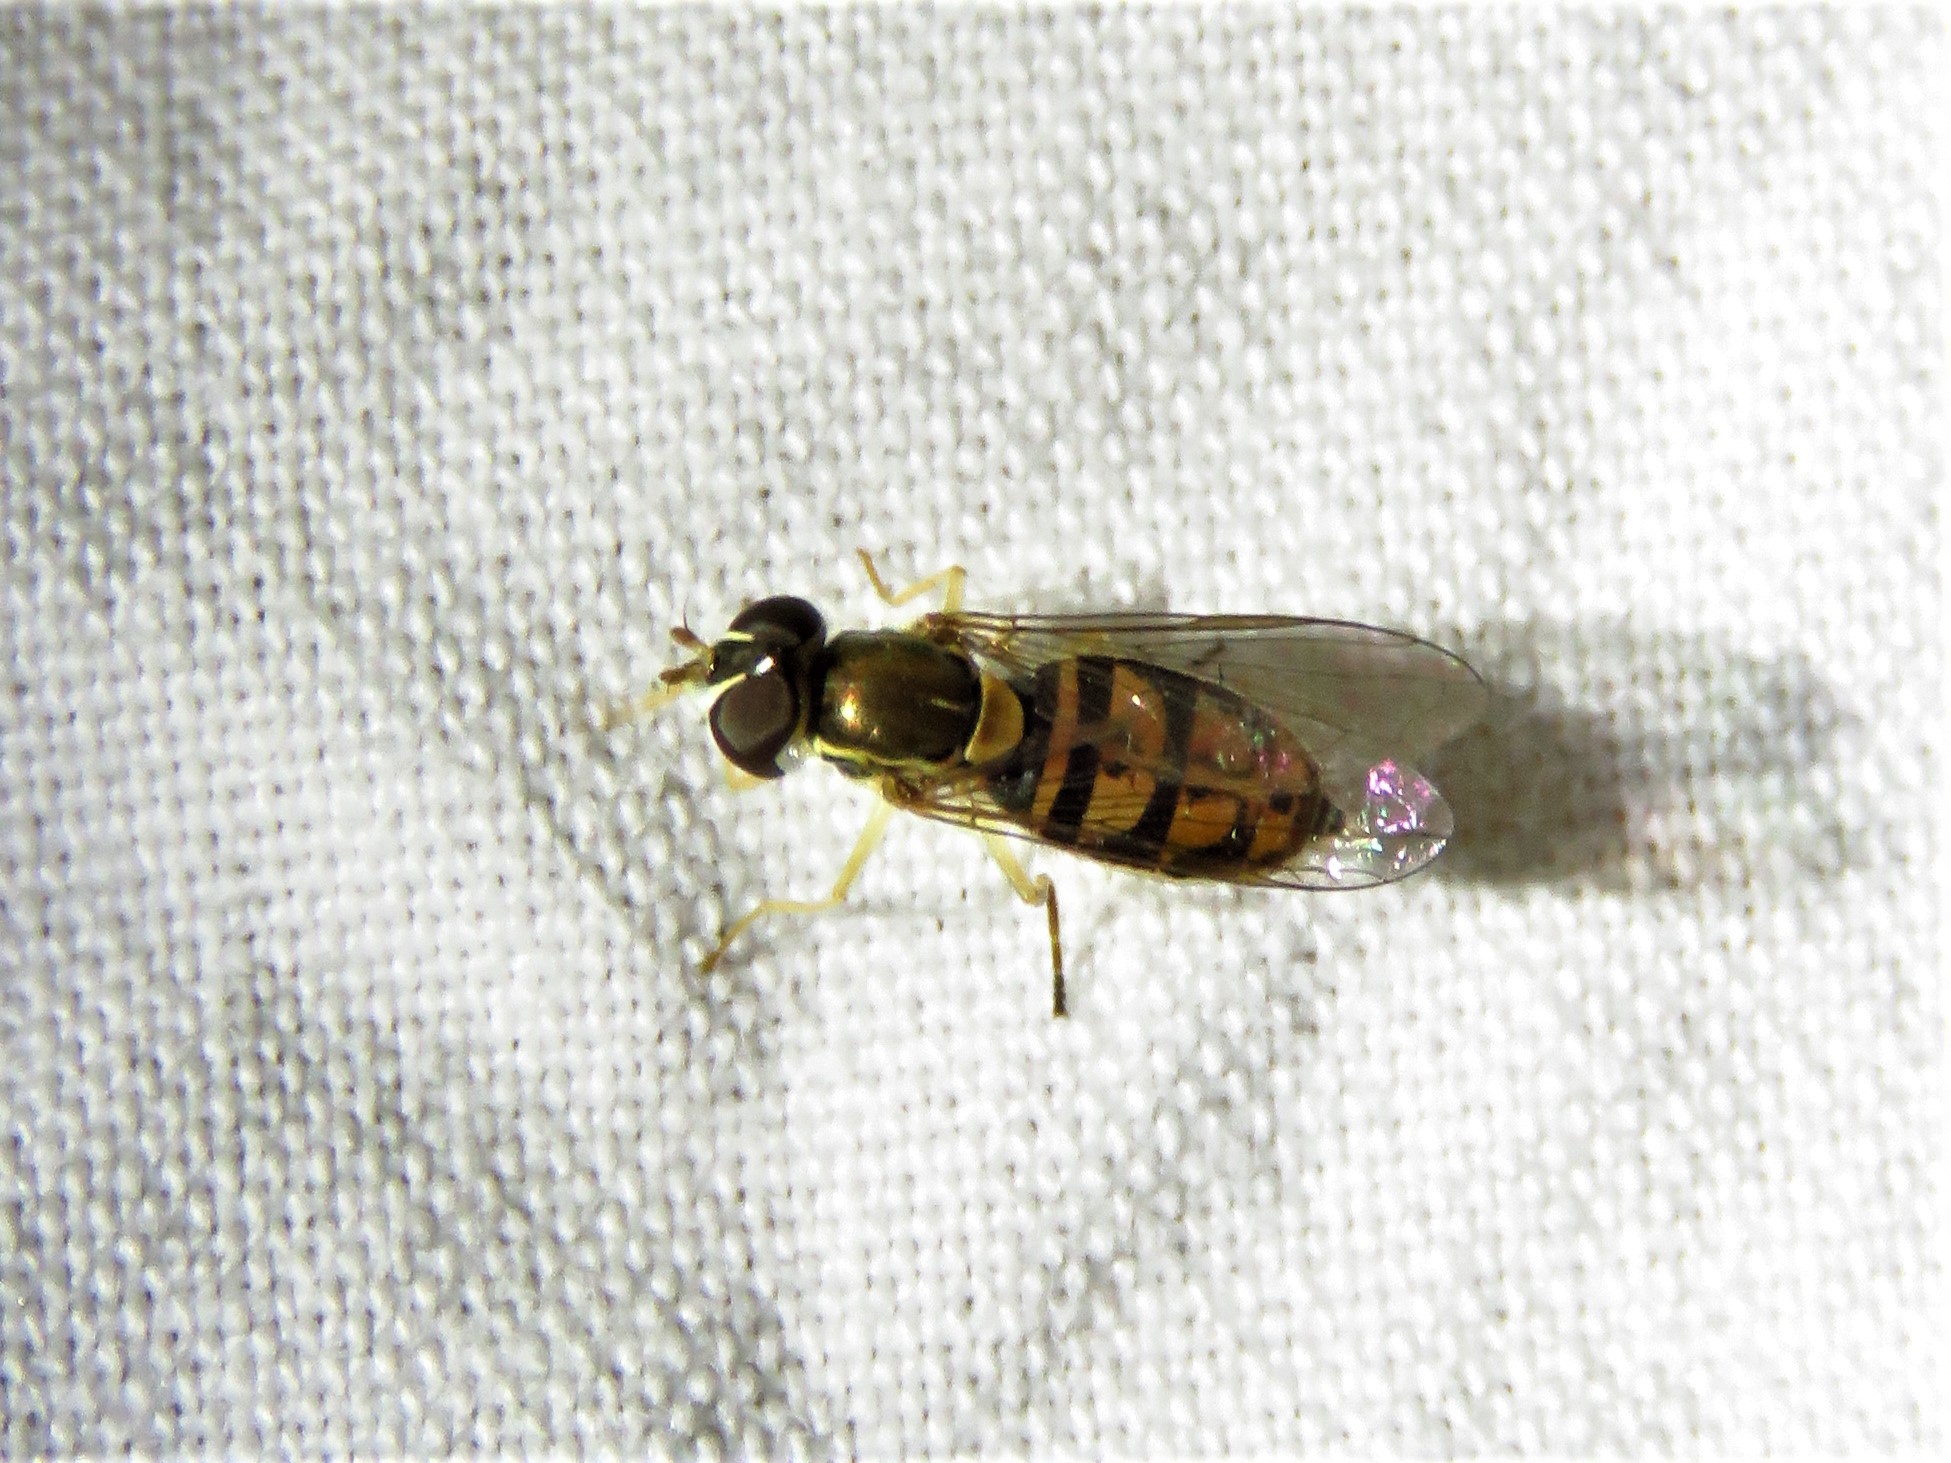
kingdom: Animalia
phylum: Arthropoda
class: Insecta
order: Diptera
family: Syrphidae
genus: Toxomerus
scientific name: Toxomerus marginatus
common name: Syrphid fly
